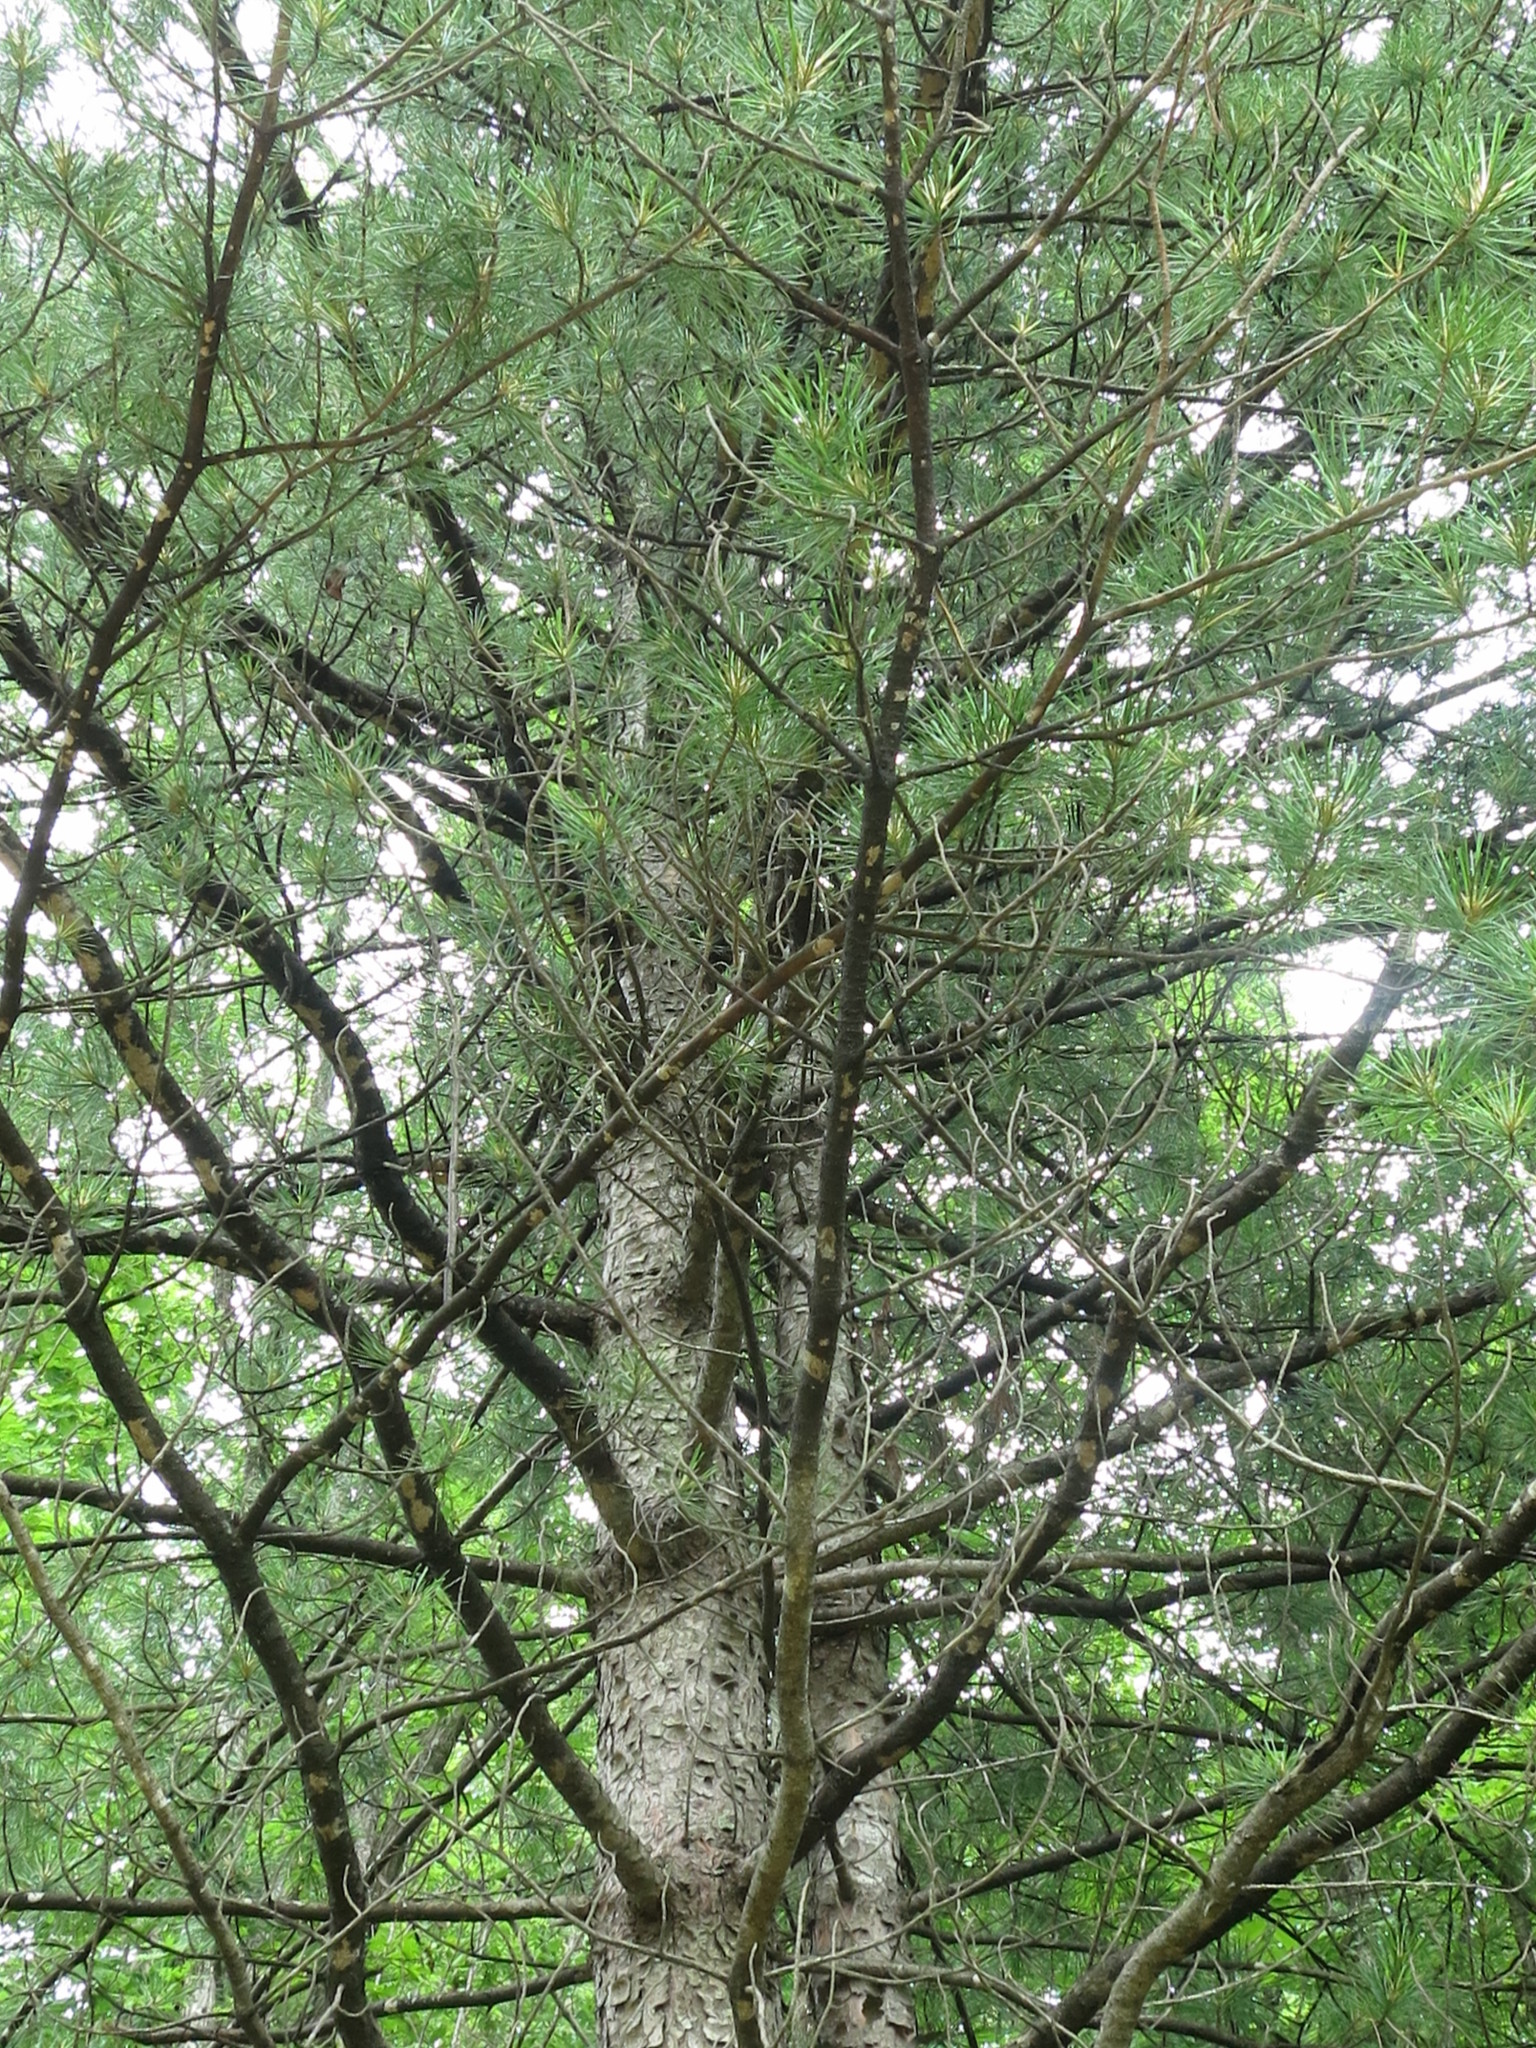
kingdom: Plantae
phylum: Tracheophyta
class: Pinopsida
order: Pinales
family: Pinaceae
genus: Pinus
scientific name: Pinus koraiensis
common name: Korean pine
